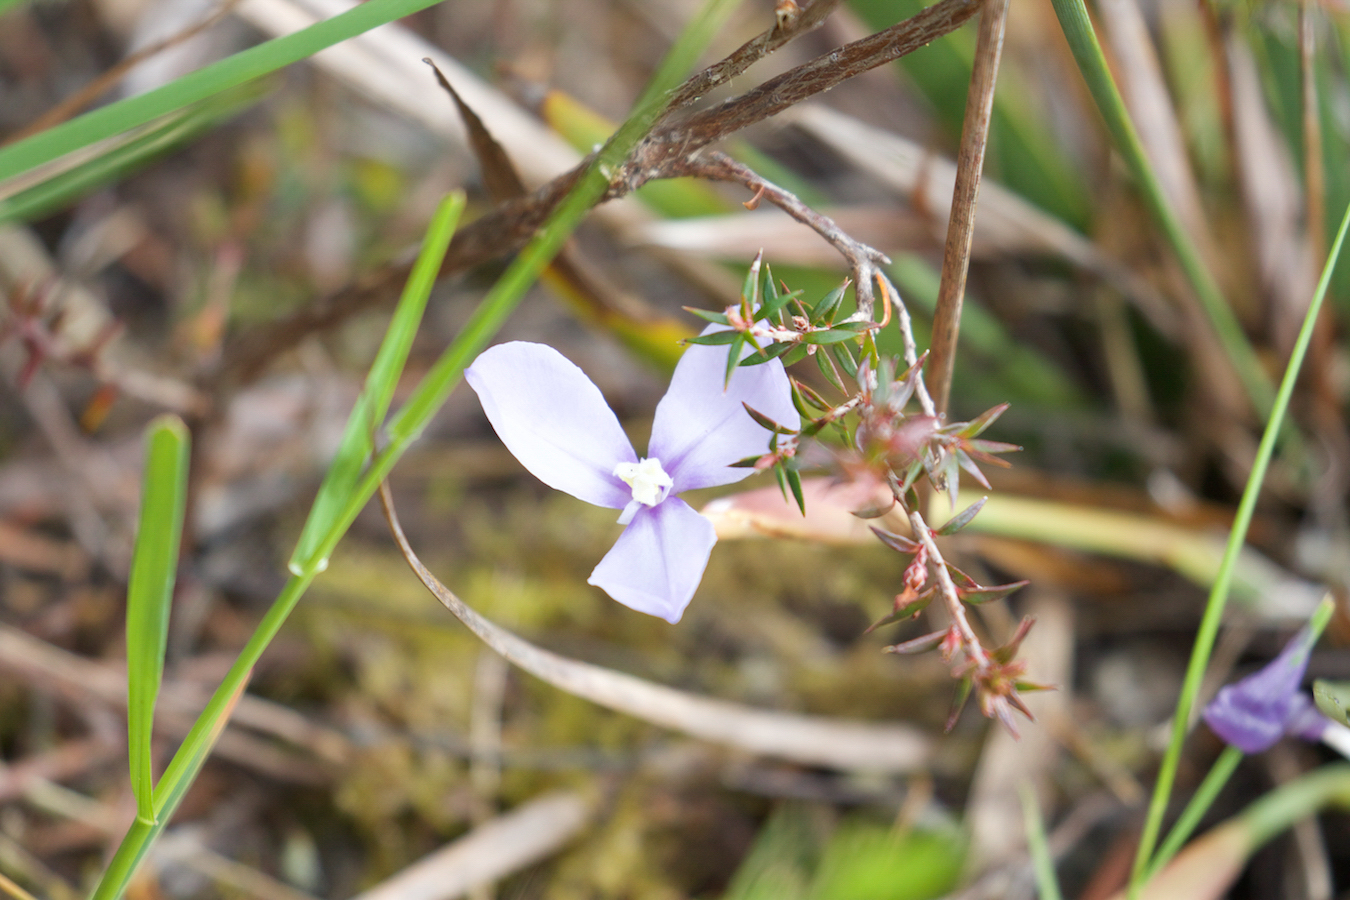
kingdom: Plantae
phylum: Tracheophyta
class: Liliopsida
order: Asparagales
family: Iridaceae
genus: Patersonia
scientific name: Patersonia fragilis
